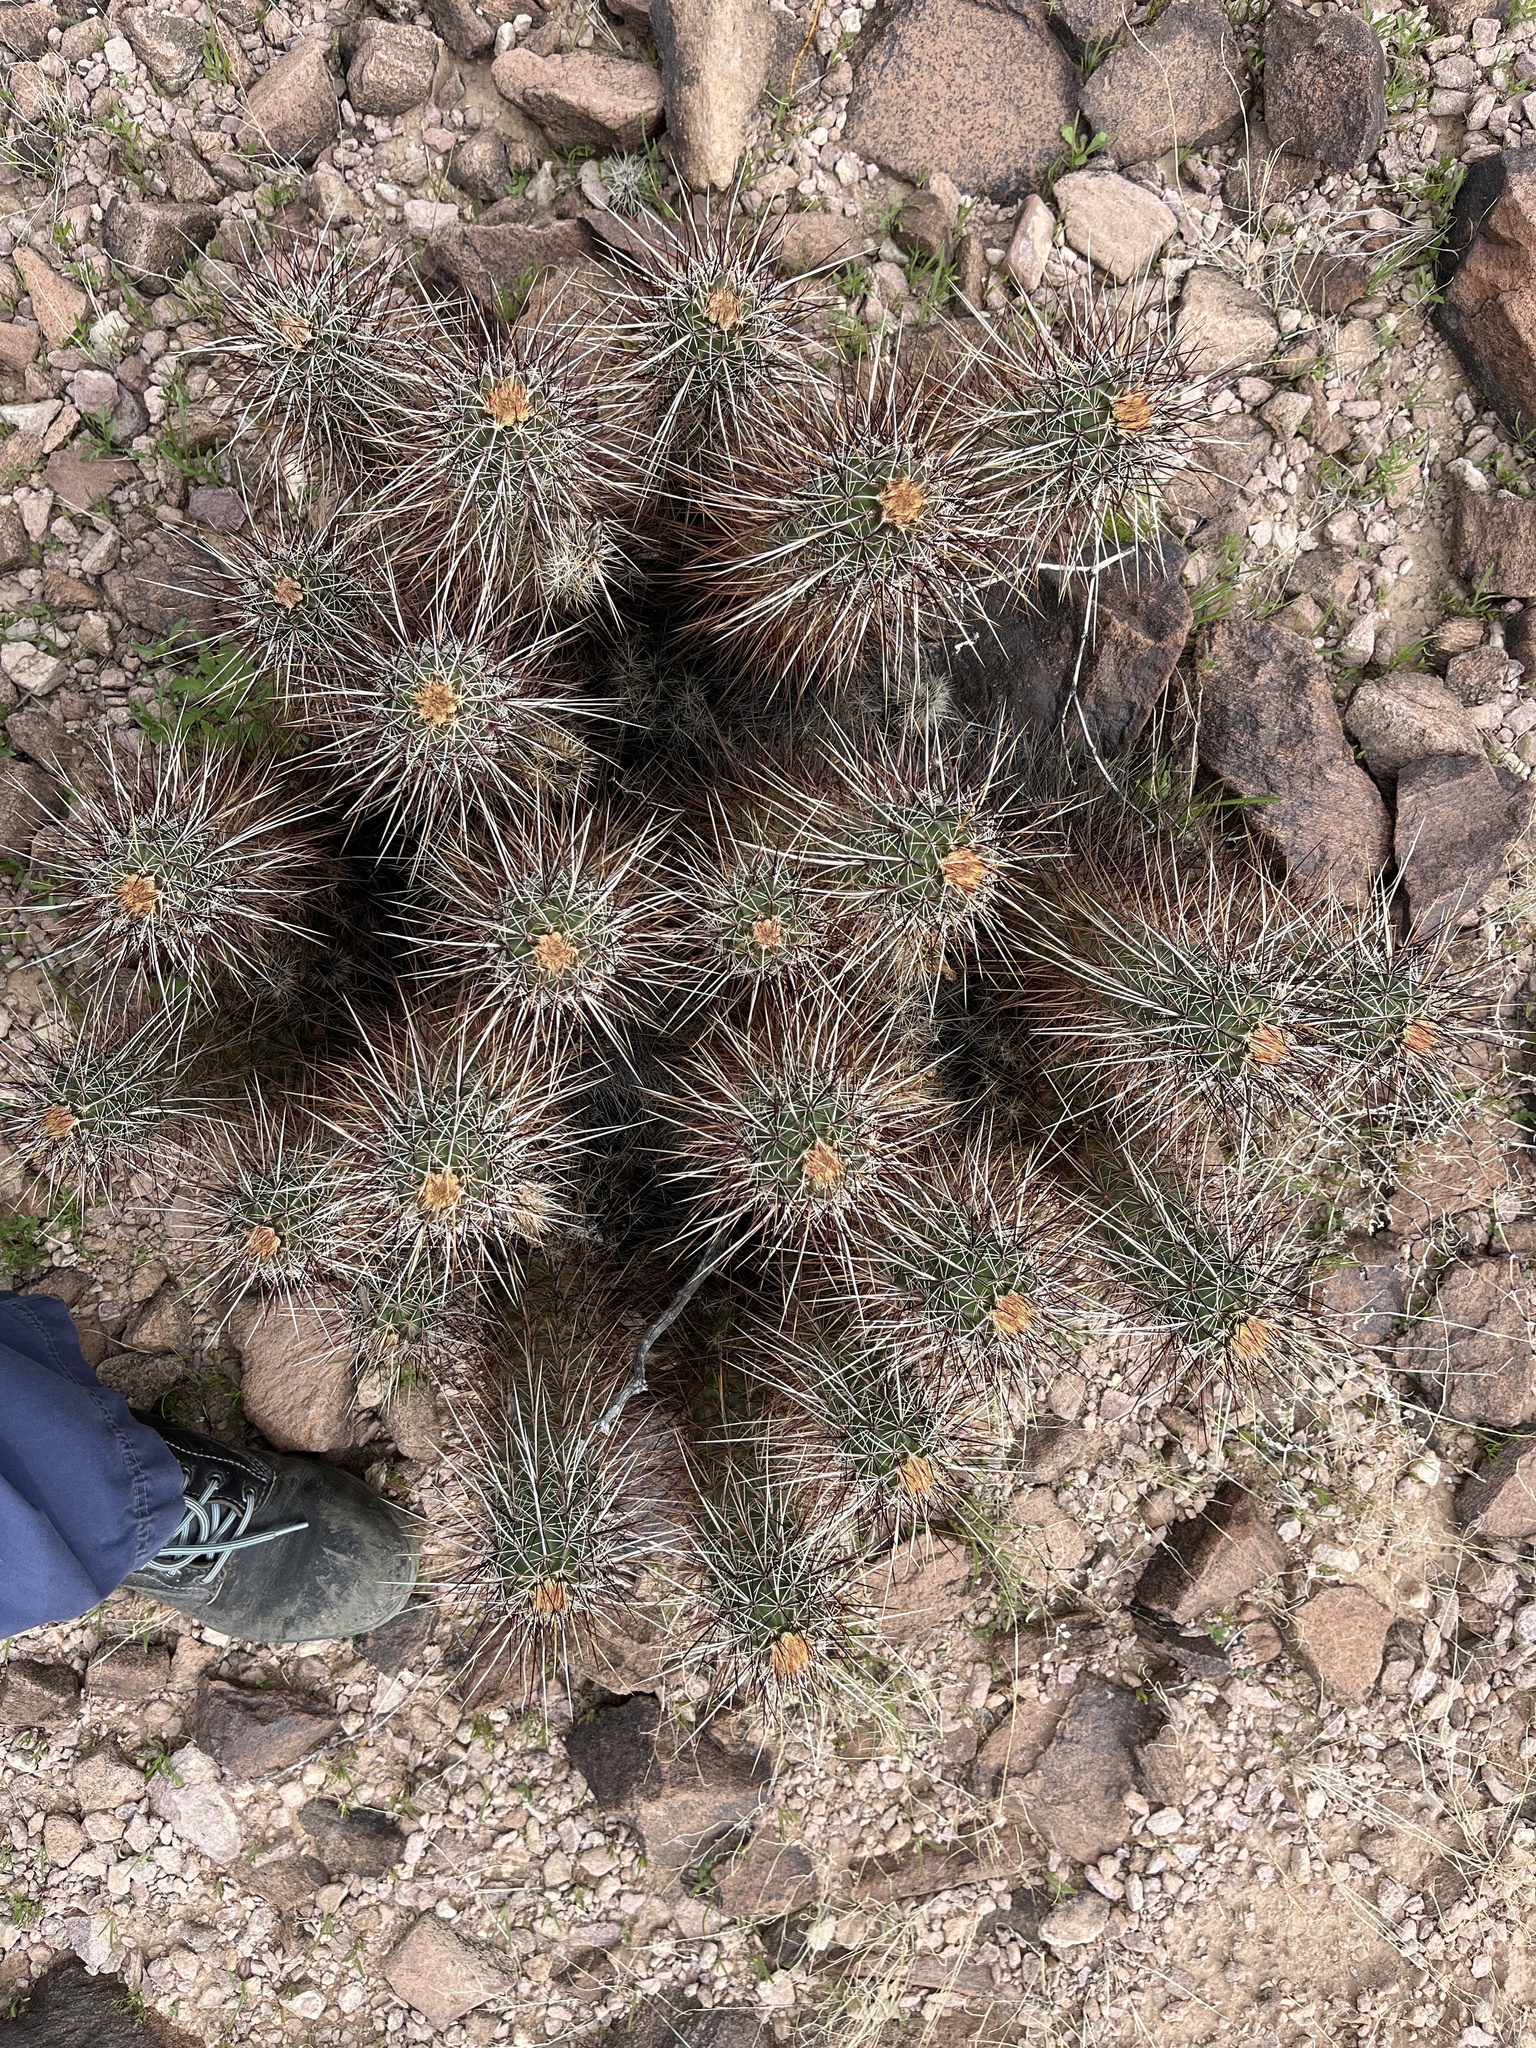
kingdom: Plantae
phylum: Tracheophyta
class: Magnoliopsida
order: Caryophyllales
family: Cactaceae
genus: Echinocereus
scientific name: Echinocereus engelmannii
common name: Engelmann's hedgehog cactus
